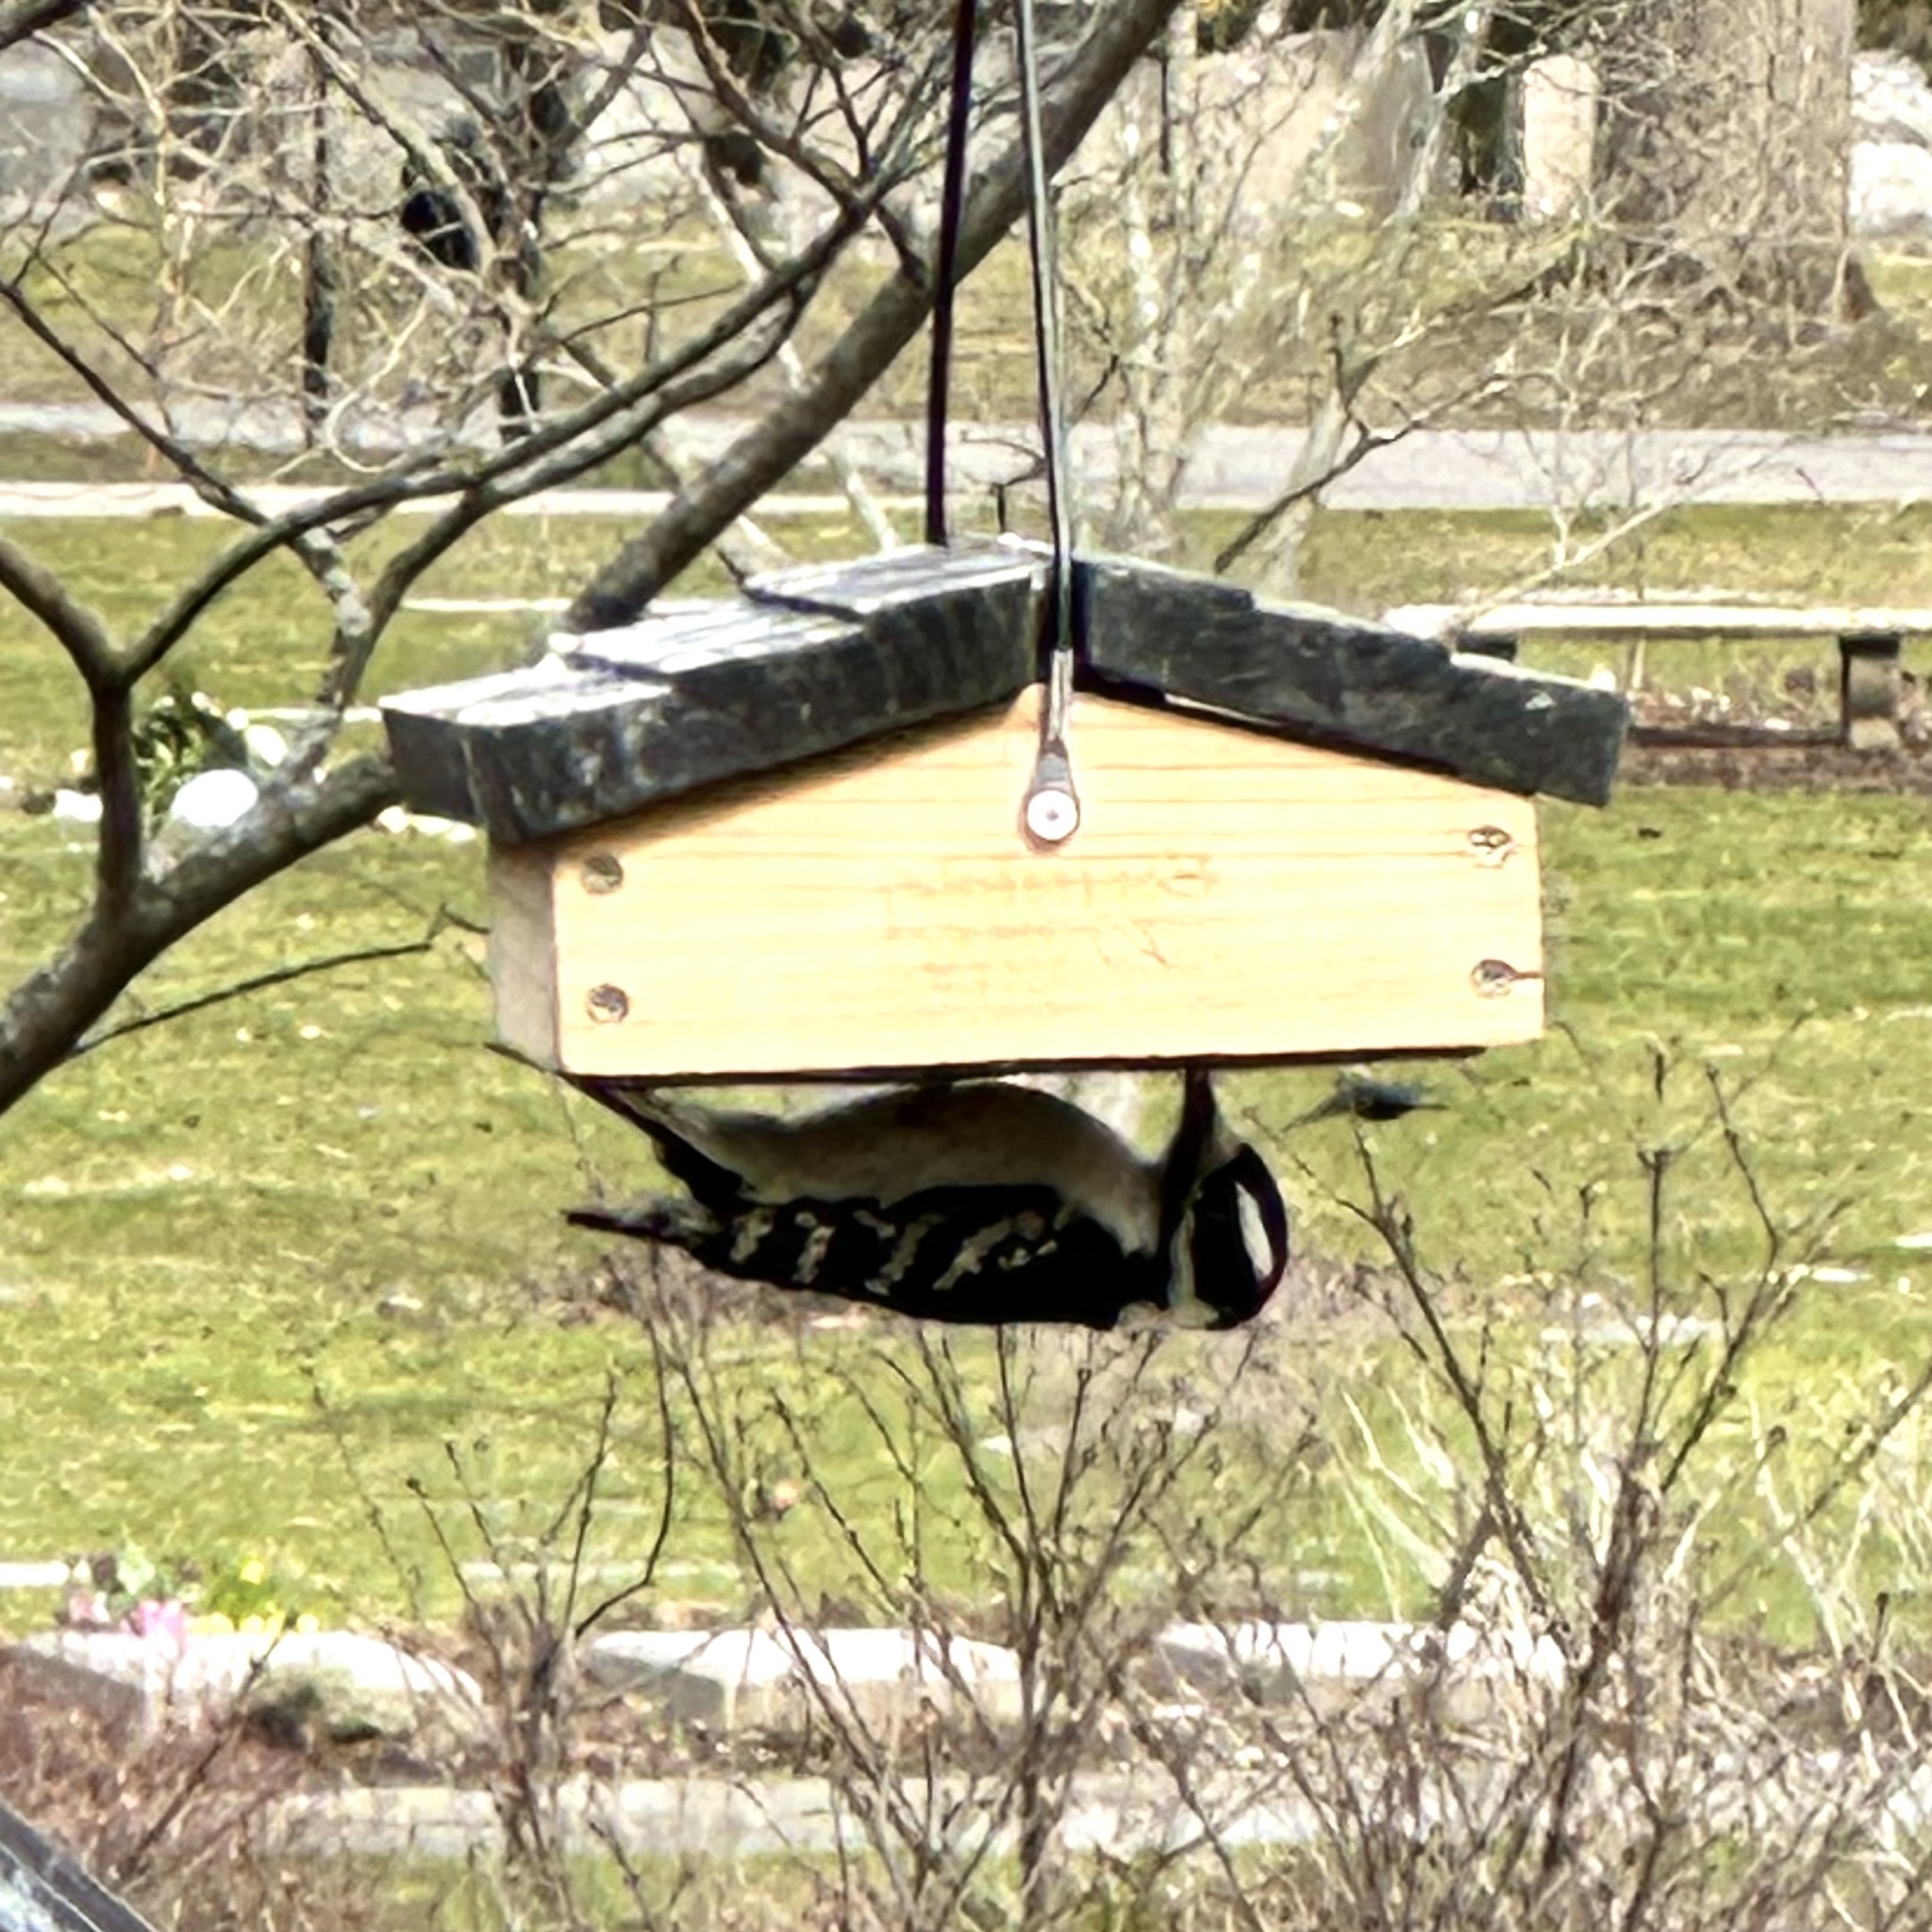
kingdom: Animalia
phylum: Chordata
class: Aves
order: Piciformes
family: Picidae
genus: Dryobates
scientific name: Dryobates pubescens
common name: Downy woodpecker
